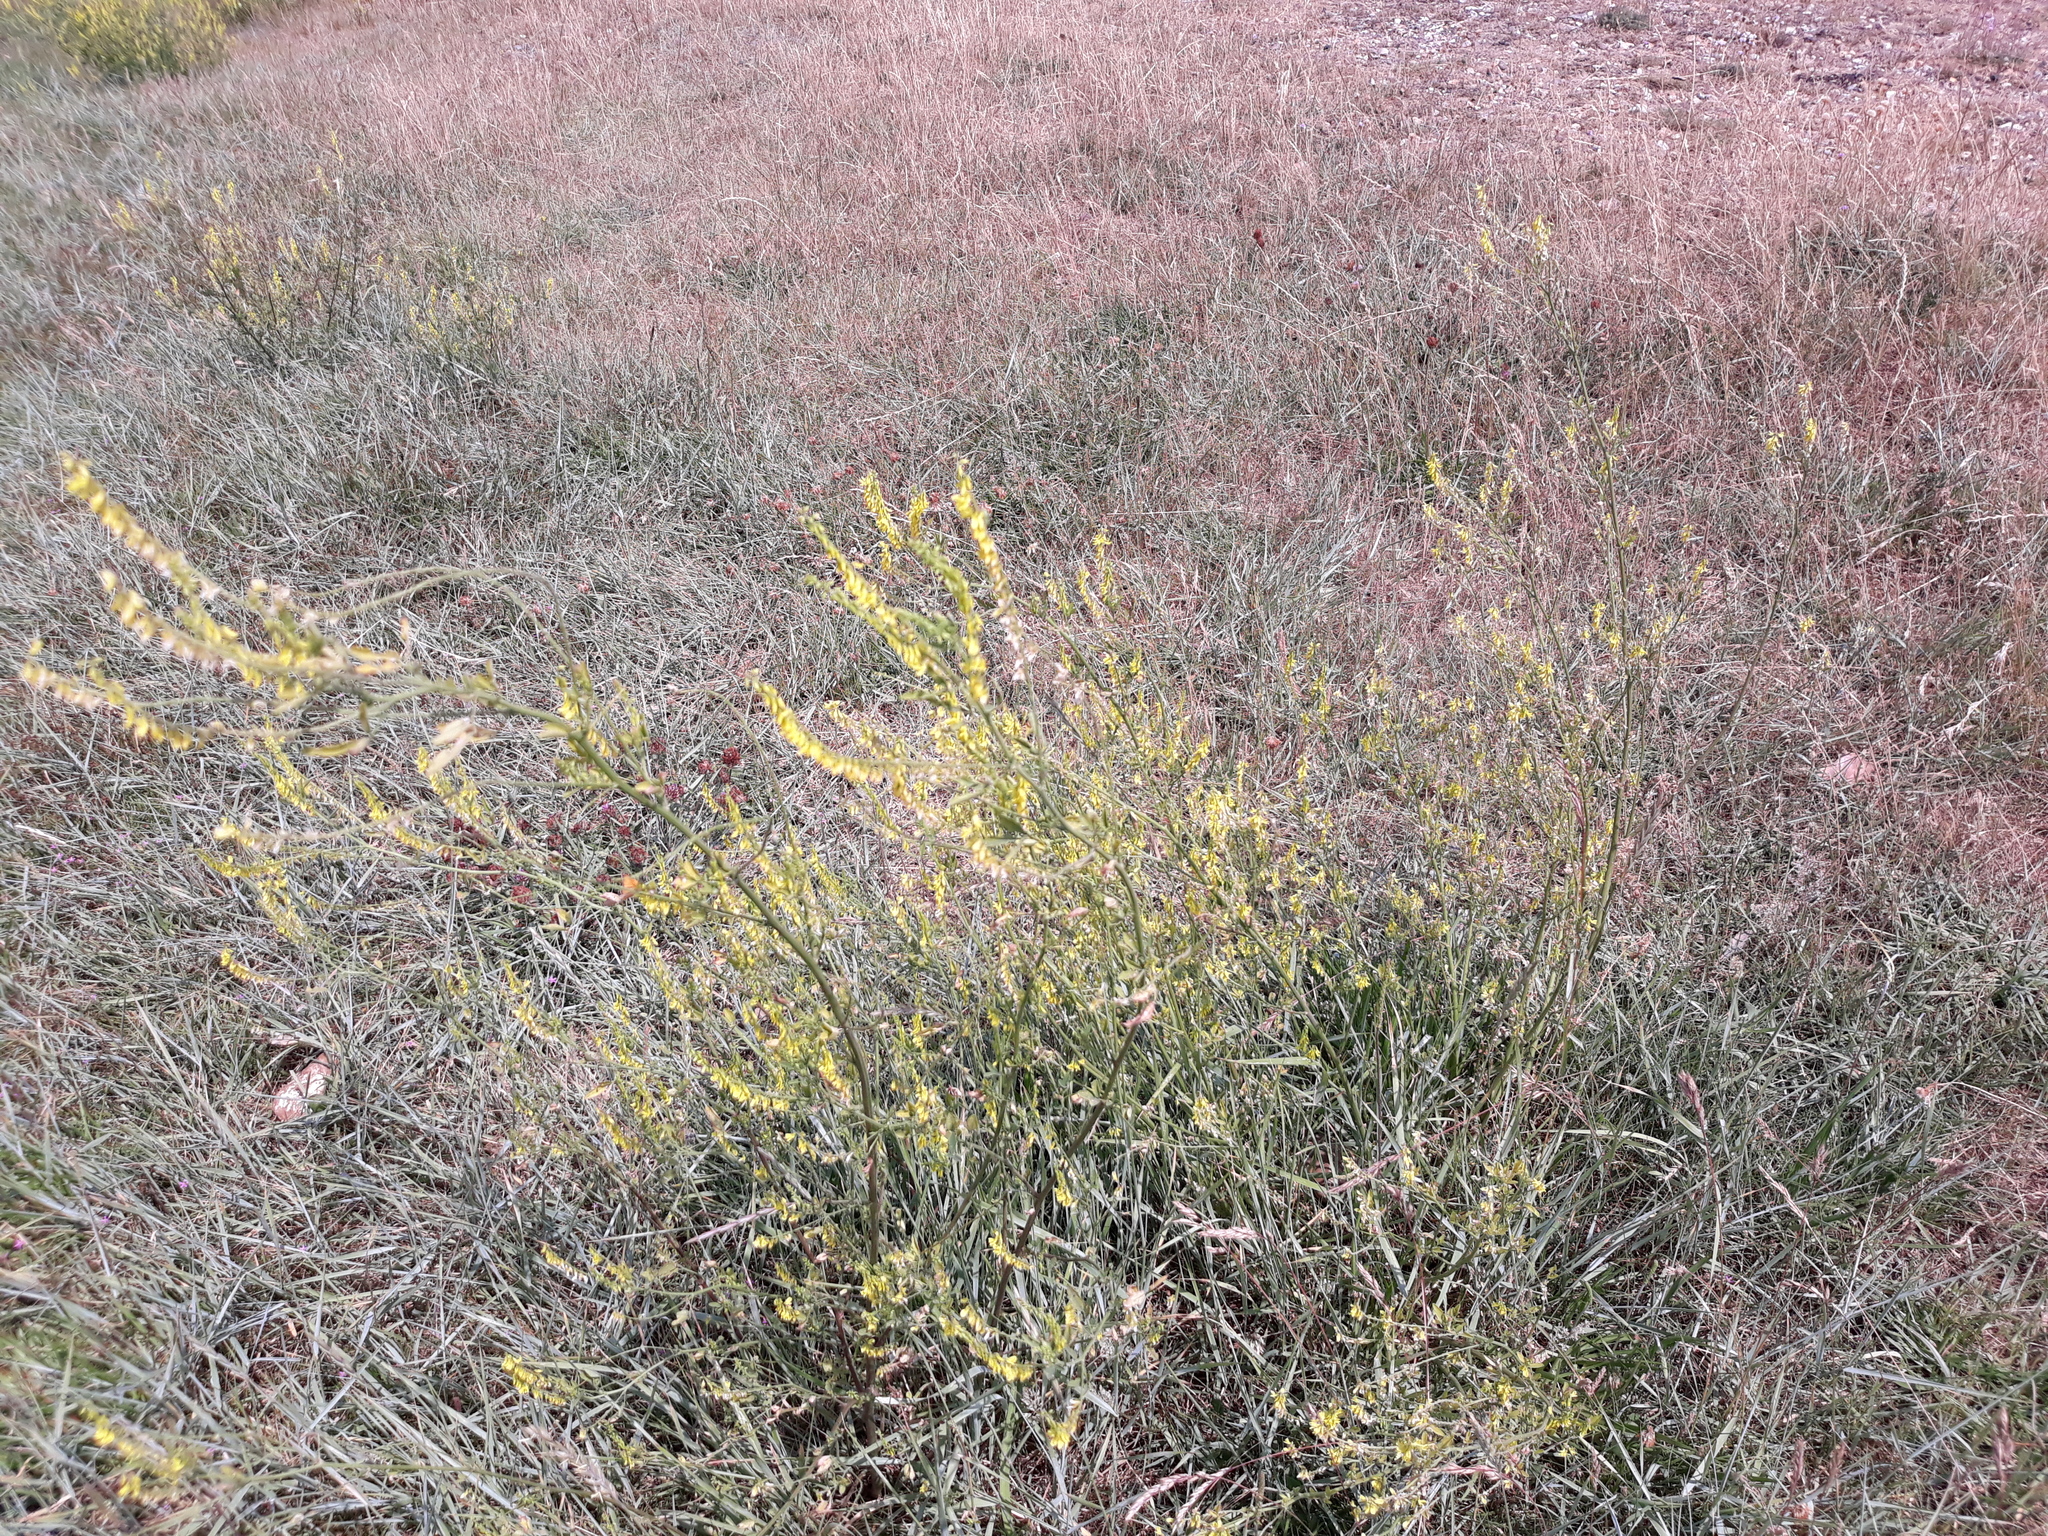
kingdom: Plantae
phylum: Tracheophyta
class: Magnoliopsida
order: Fabales
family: Fabaceae
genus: Melilotus
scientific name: Melilotus officinalis
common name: Sweetclover
